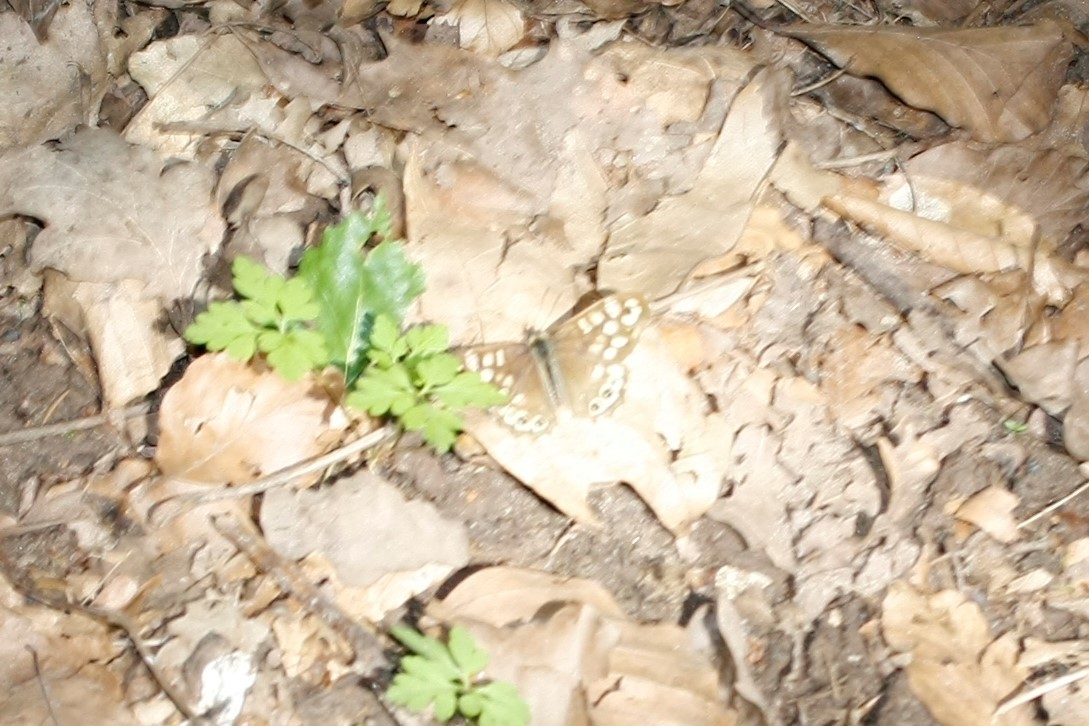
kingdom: Animalia
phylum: Arthropoda
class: Insecta
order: Lepidoptera
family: Nymphalidae
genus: Pararge
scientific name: Pararge aegeria
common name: Speckled wood
